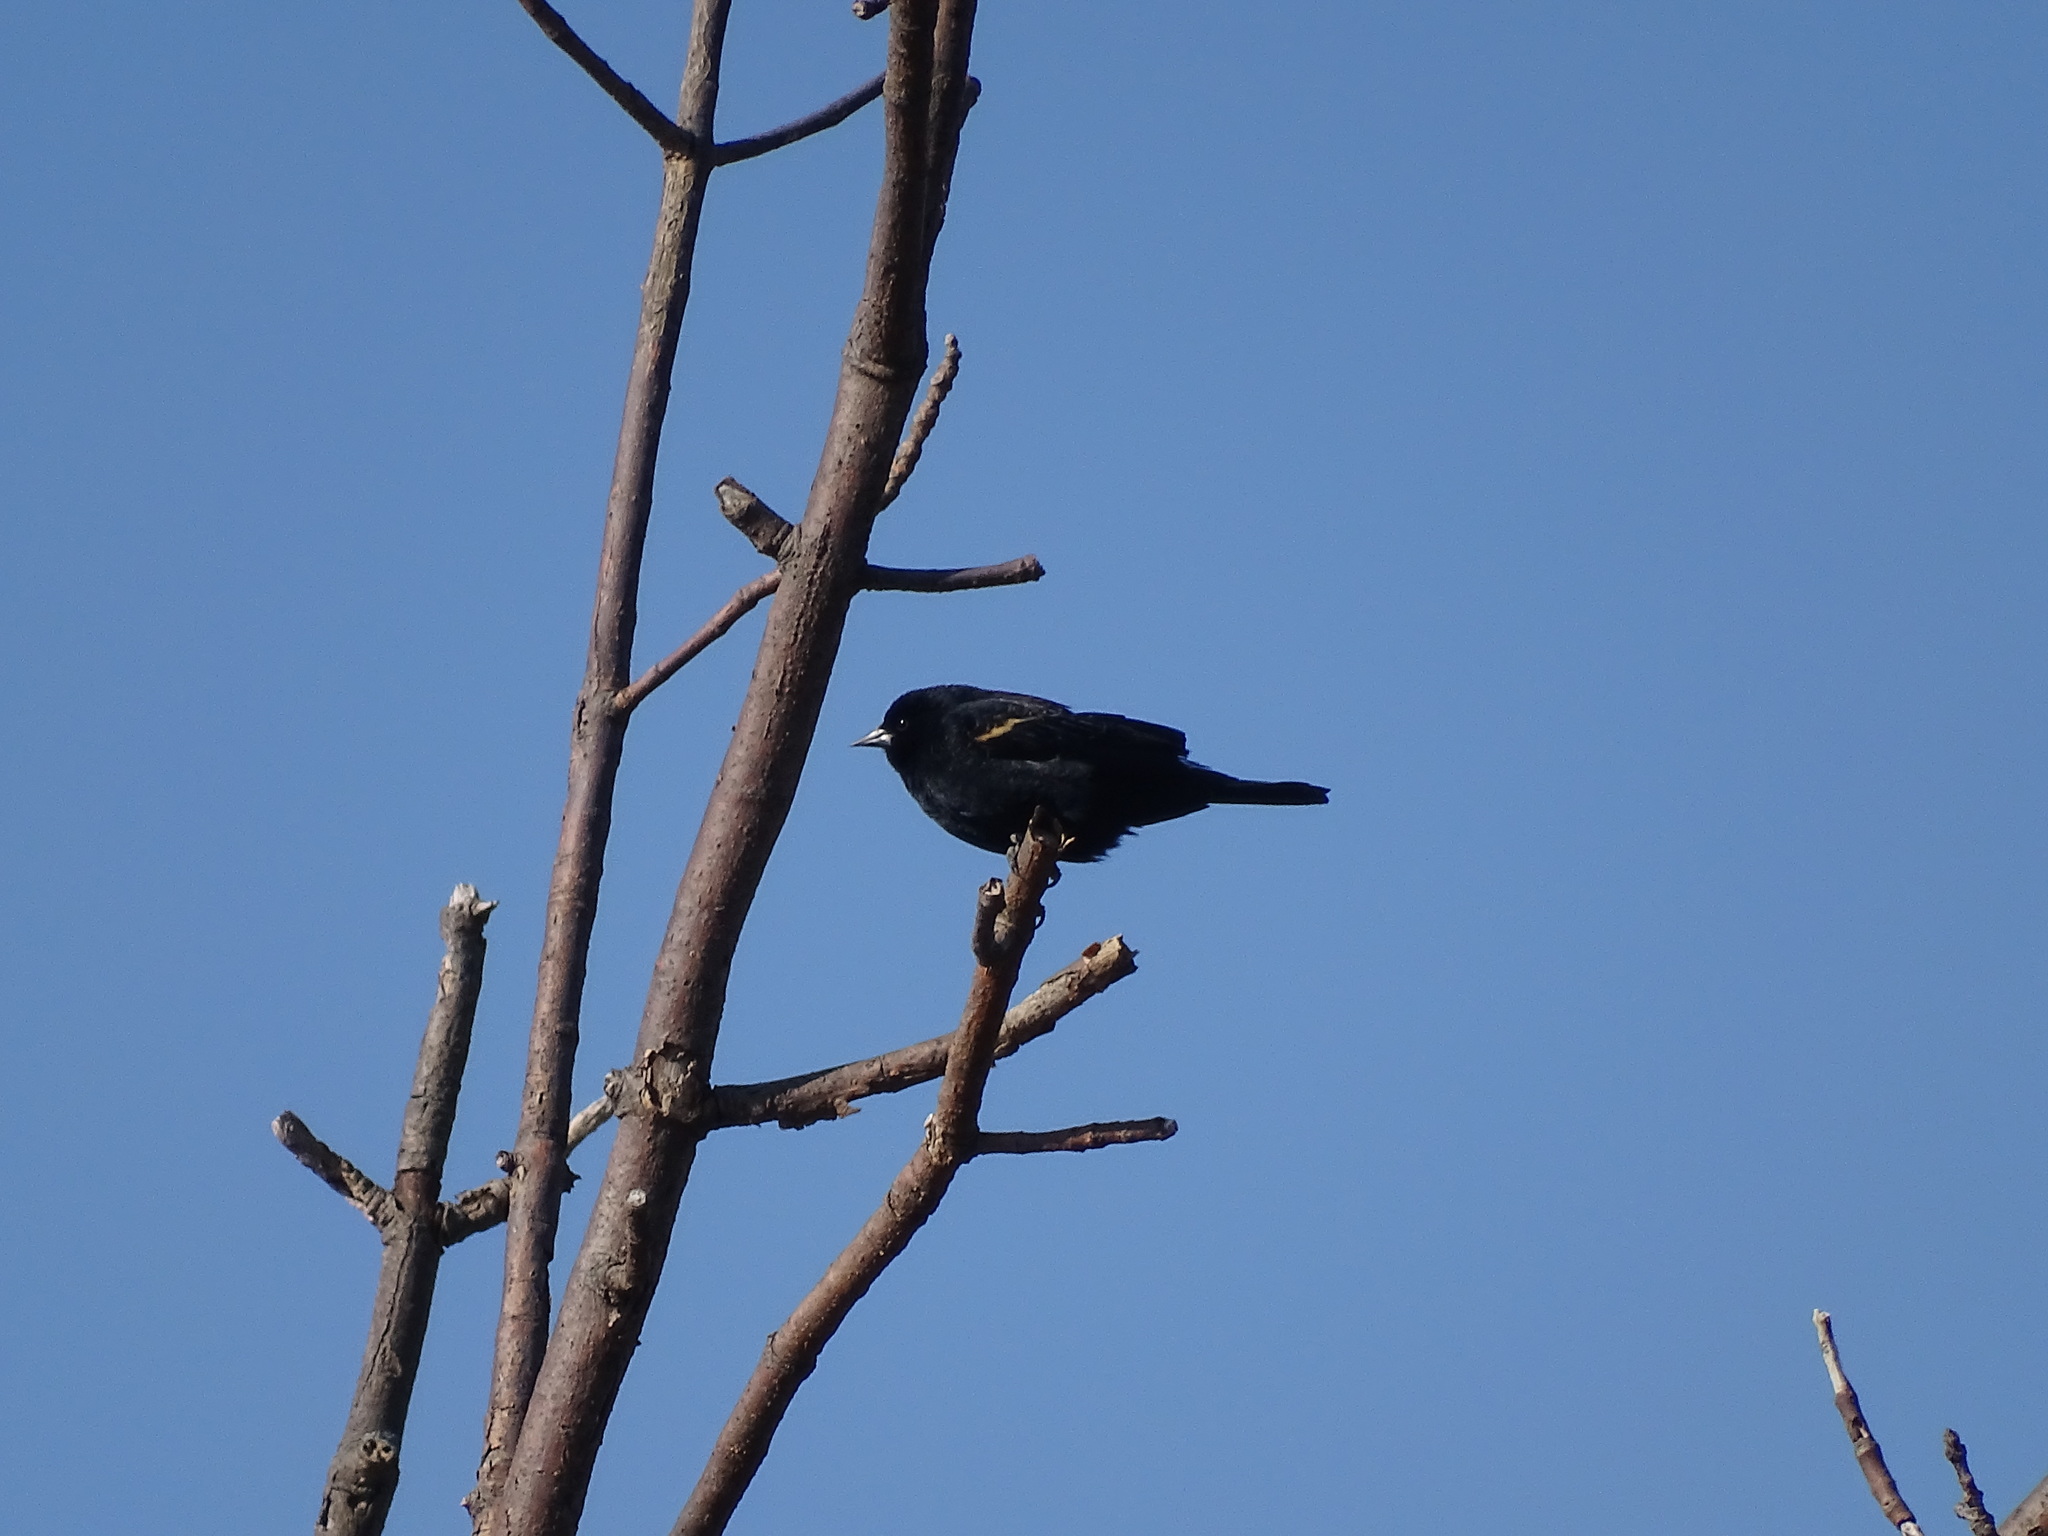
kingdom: Animalia
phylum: Chordata
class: Aves
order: Passeriformes
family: Icteridae
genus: Agelaius
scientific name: Agelaius phoeniceus
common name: Red-winged blackbird
